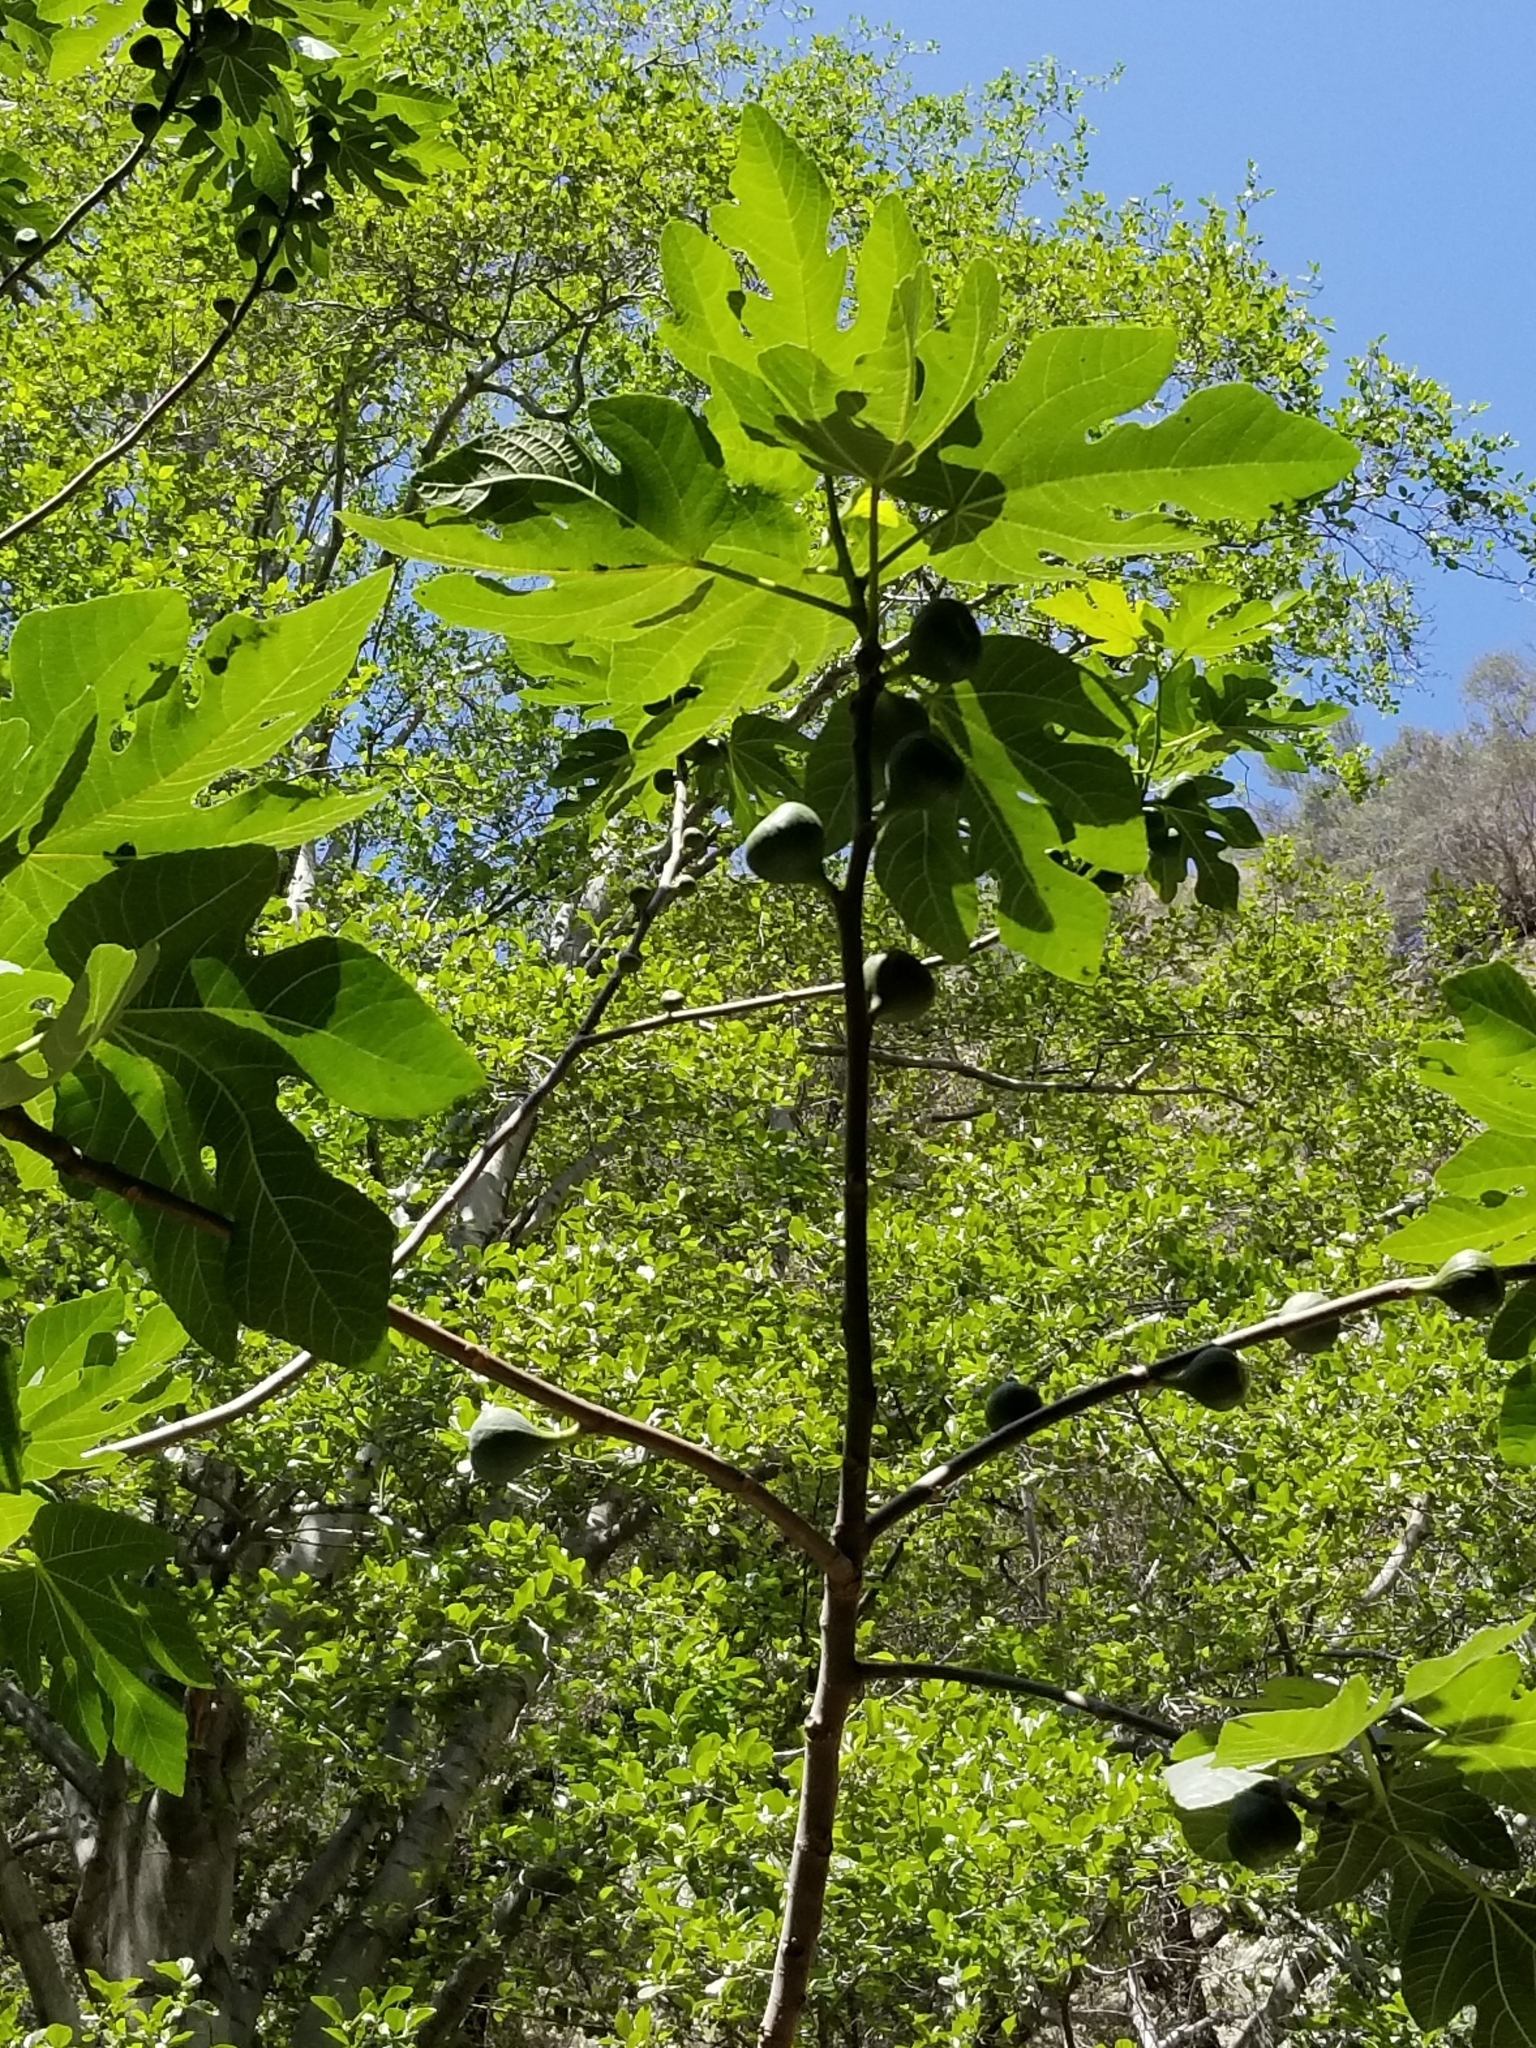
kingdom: Plantae
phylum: Tracheophyta
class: Magnoliopsida
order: Rosales
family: Moraceae
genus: Ficus
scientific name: Ficus carica
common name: Fig
